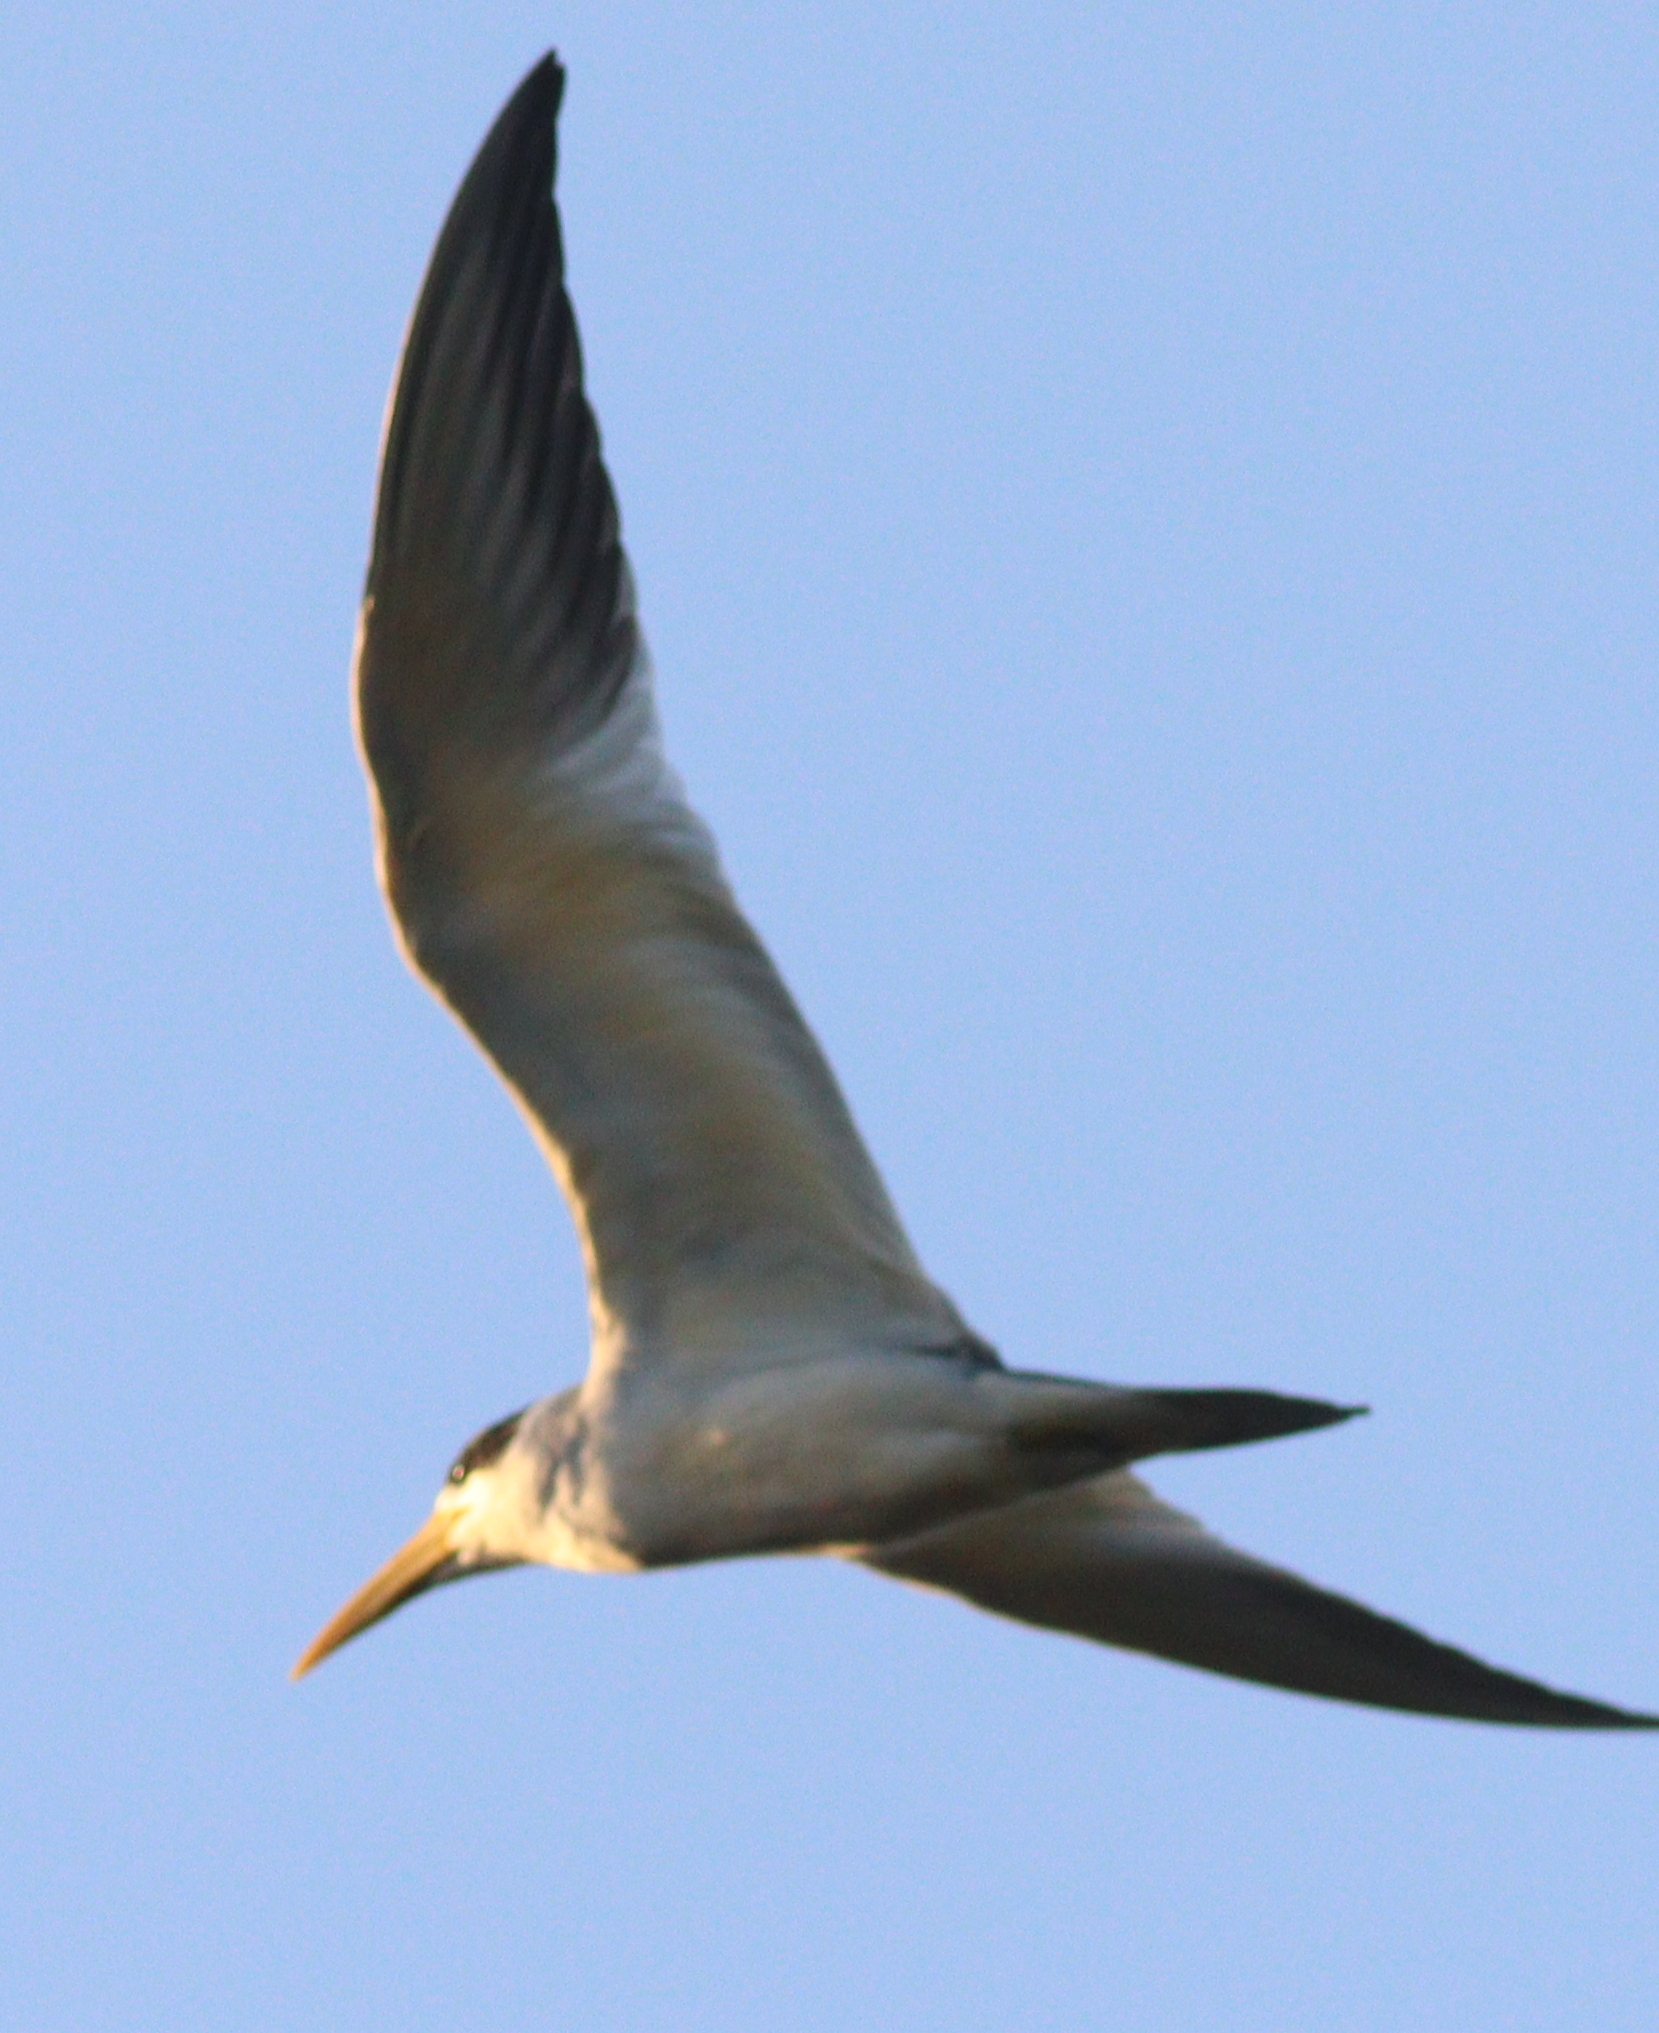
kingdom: Animalia
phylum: Chordata
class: Aves
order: Charadriiformes
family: Laridae
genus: Phaetusa
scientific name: Phaetusa simplex
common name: Large-billed tern
